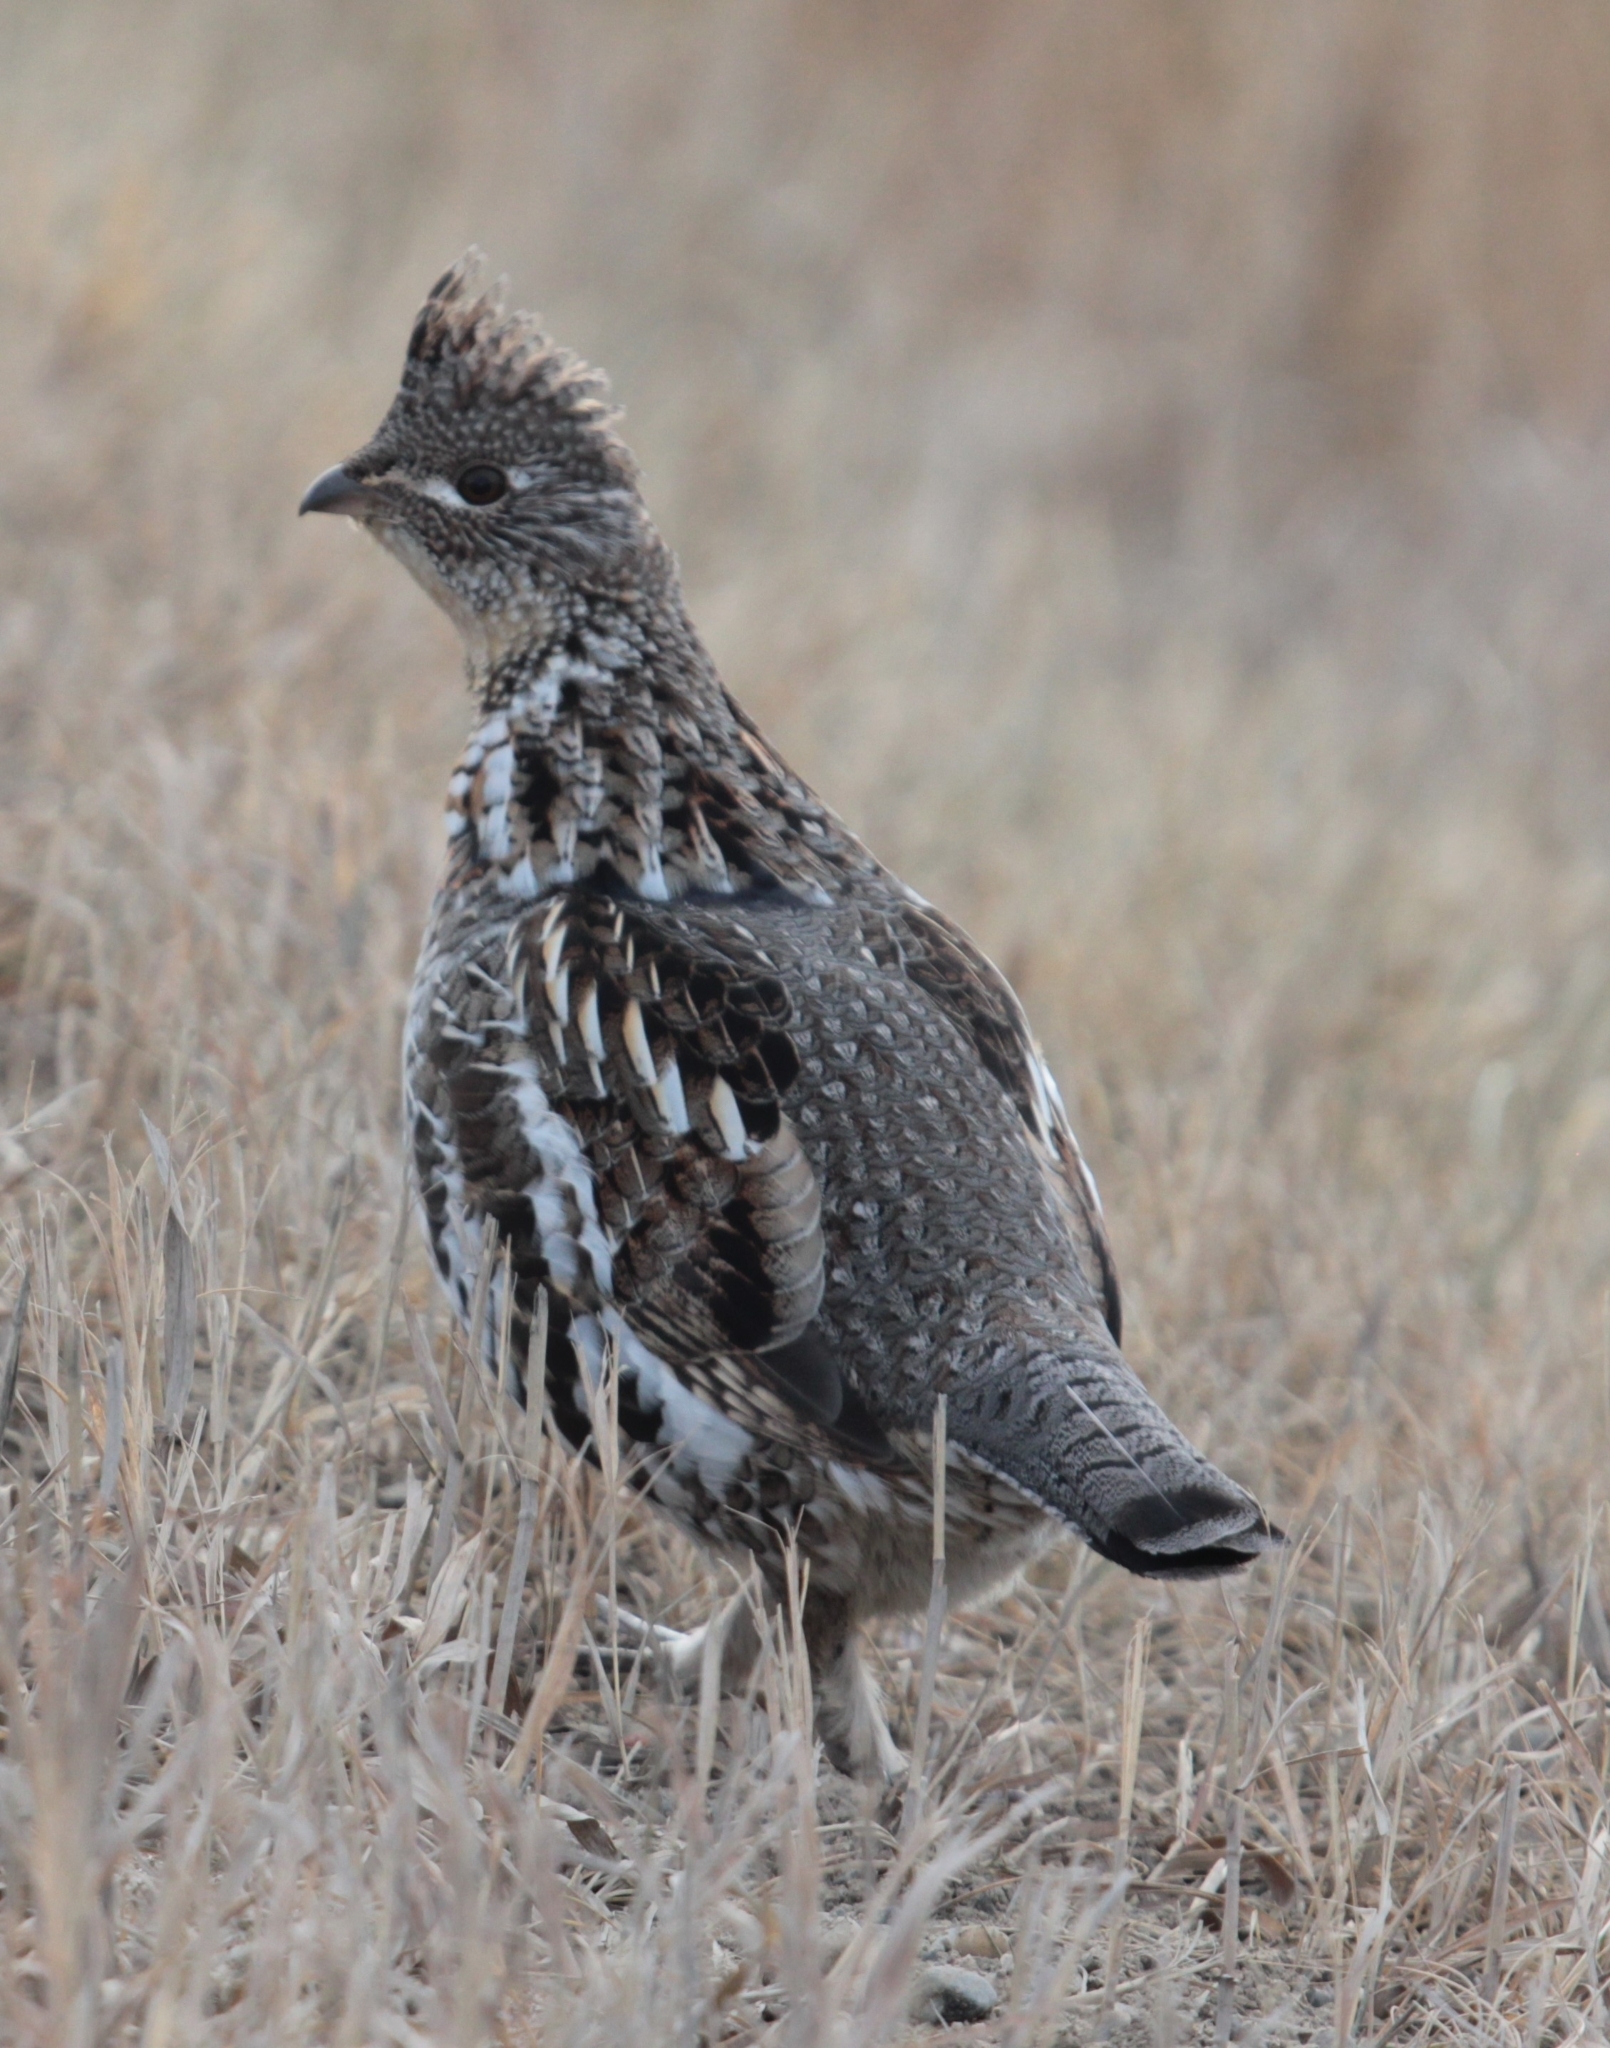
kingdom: Animalia
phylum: Chordata
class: Aves
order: Galliformes
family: Phasianidae
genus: Bonasa
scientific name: Bonasa umbellus
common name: Ruffed grouse
